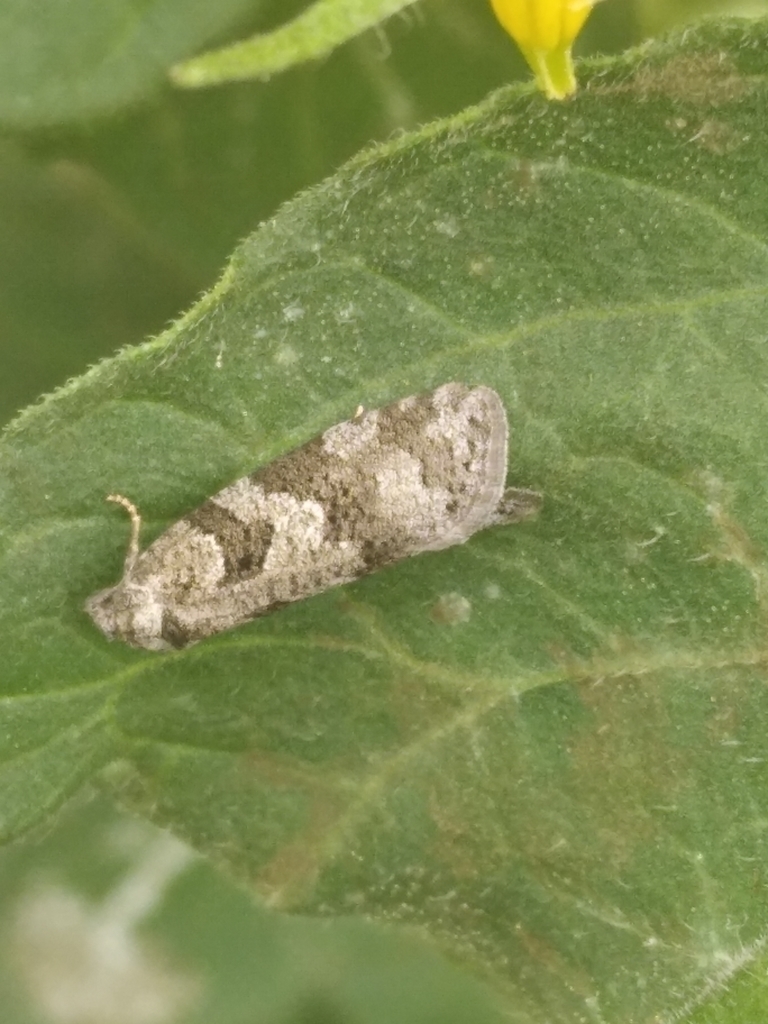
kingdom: Animalia
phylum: Arthropoda
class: Insecta
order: Lepidoptera
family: Tortricidae
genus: Cnephasia
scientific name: Cnephasia stephensiana
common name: Grey tortrix
